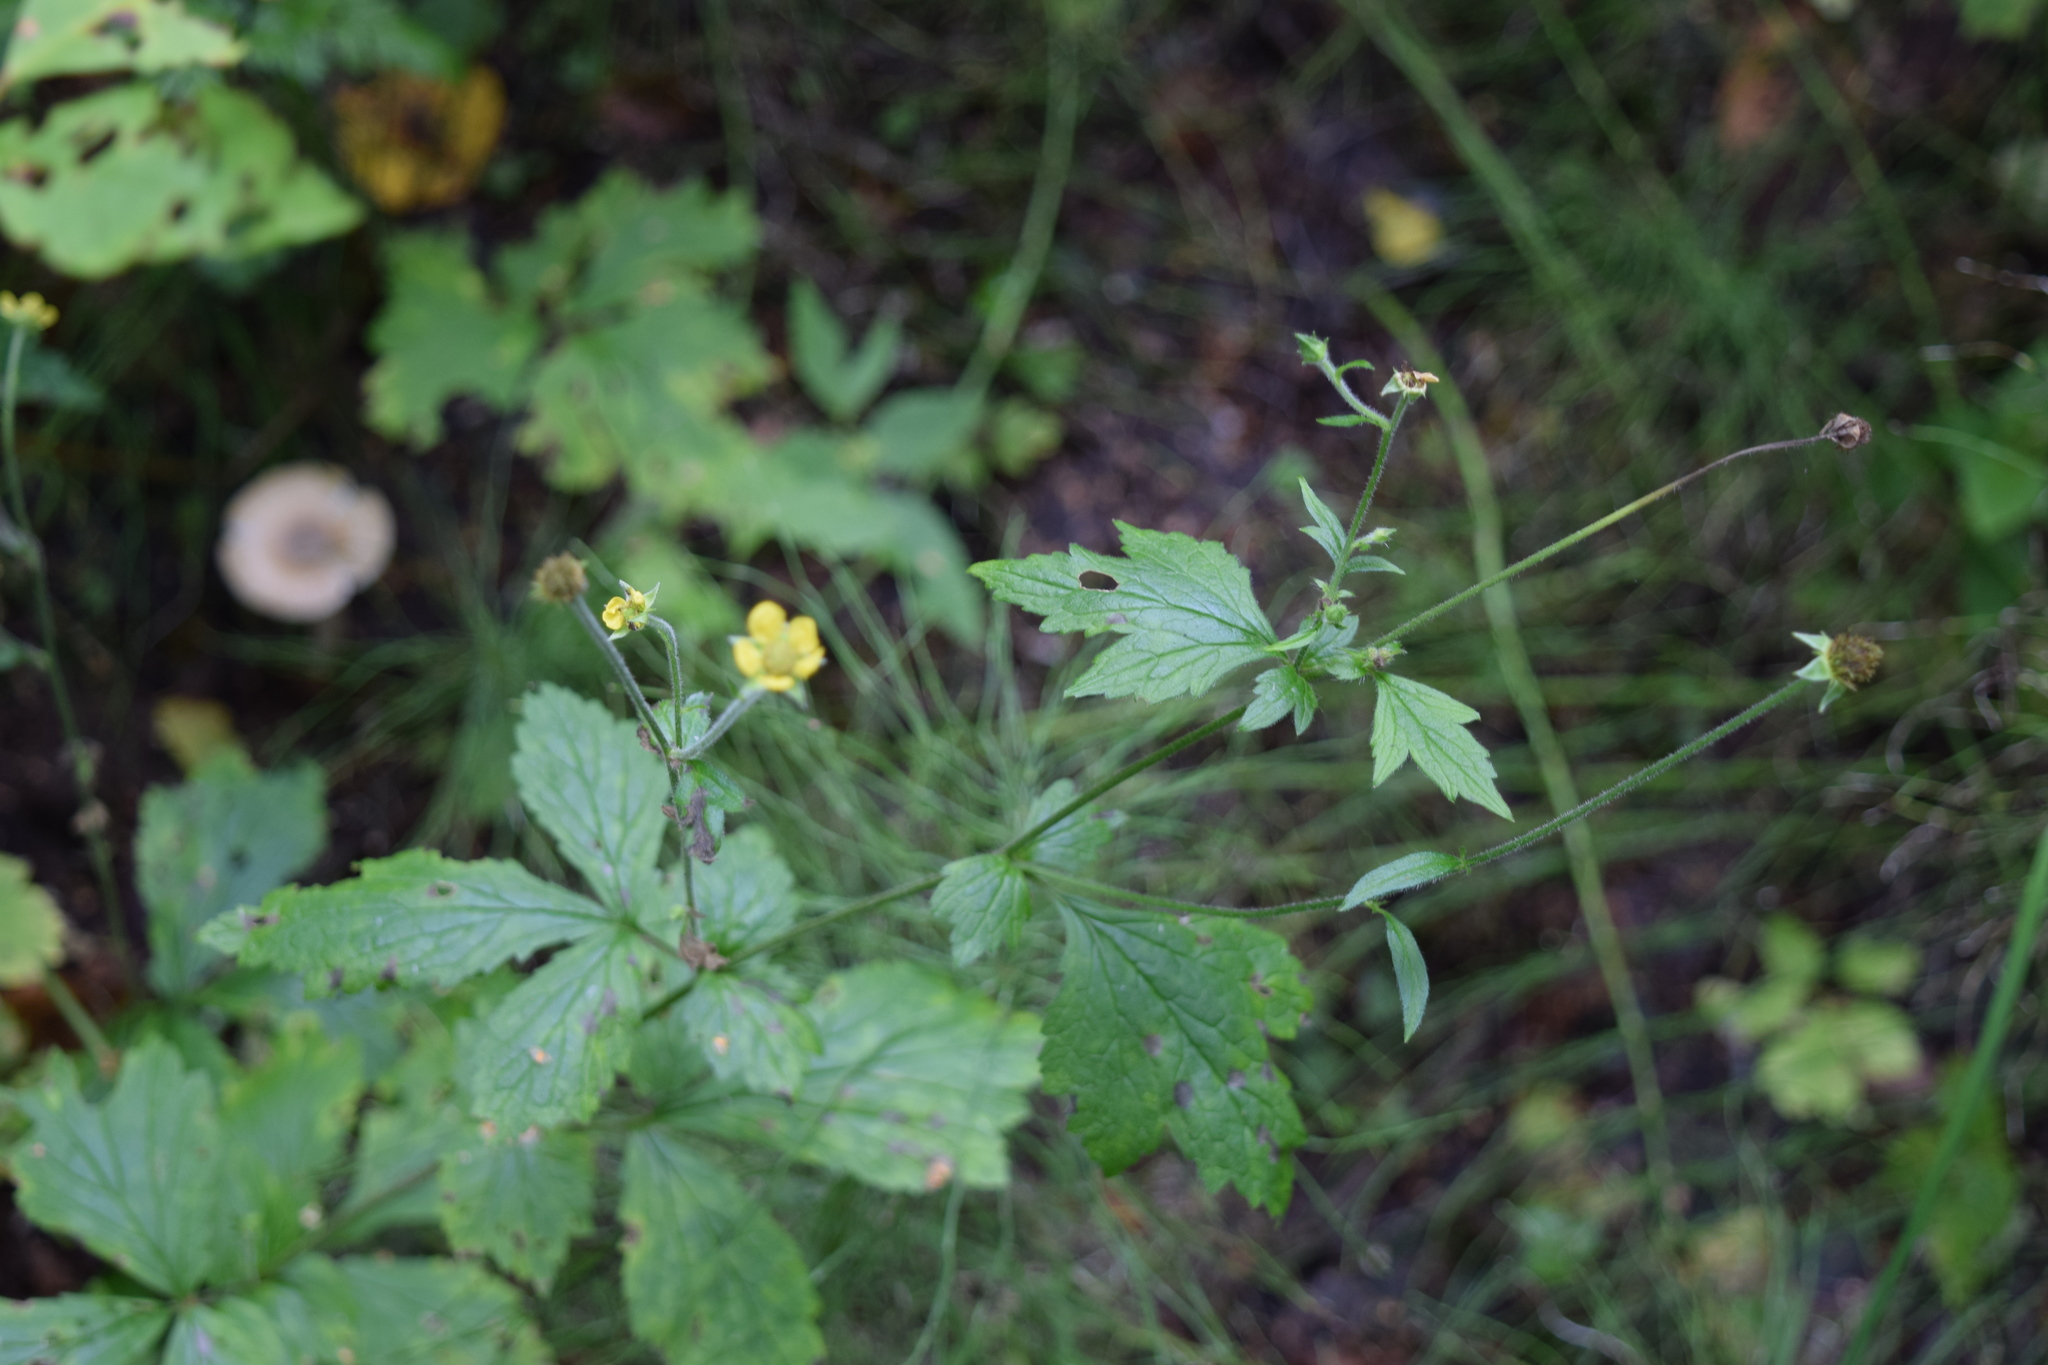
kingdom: Plantae
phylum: Tracheophyta
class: Magnoliopsida
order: Rosales
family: Rosaceae
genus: Geum
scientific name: Geum urbanum
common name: Wood avens
